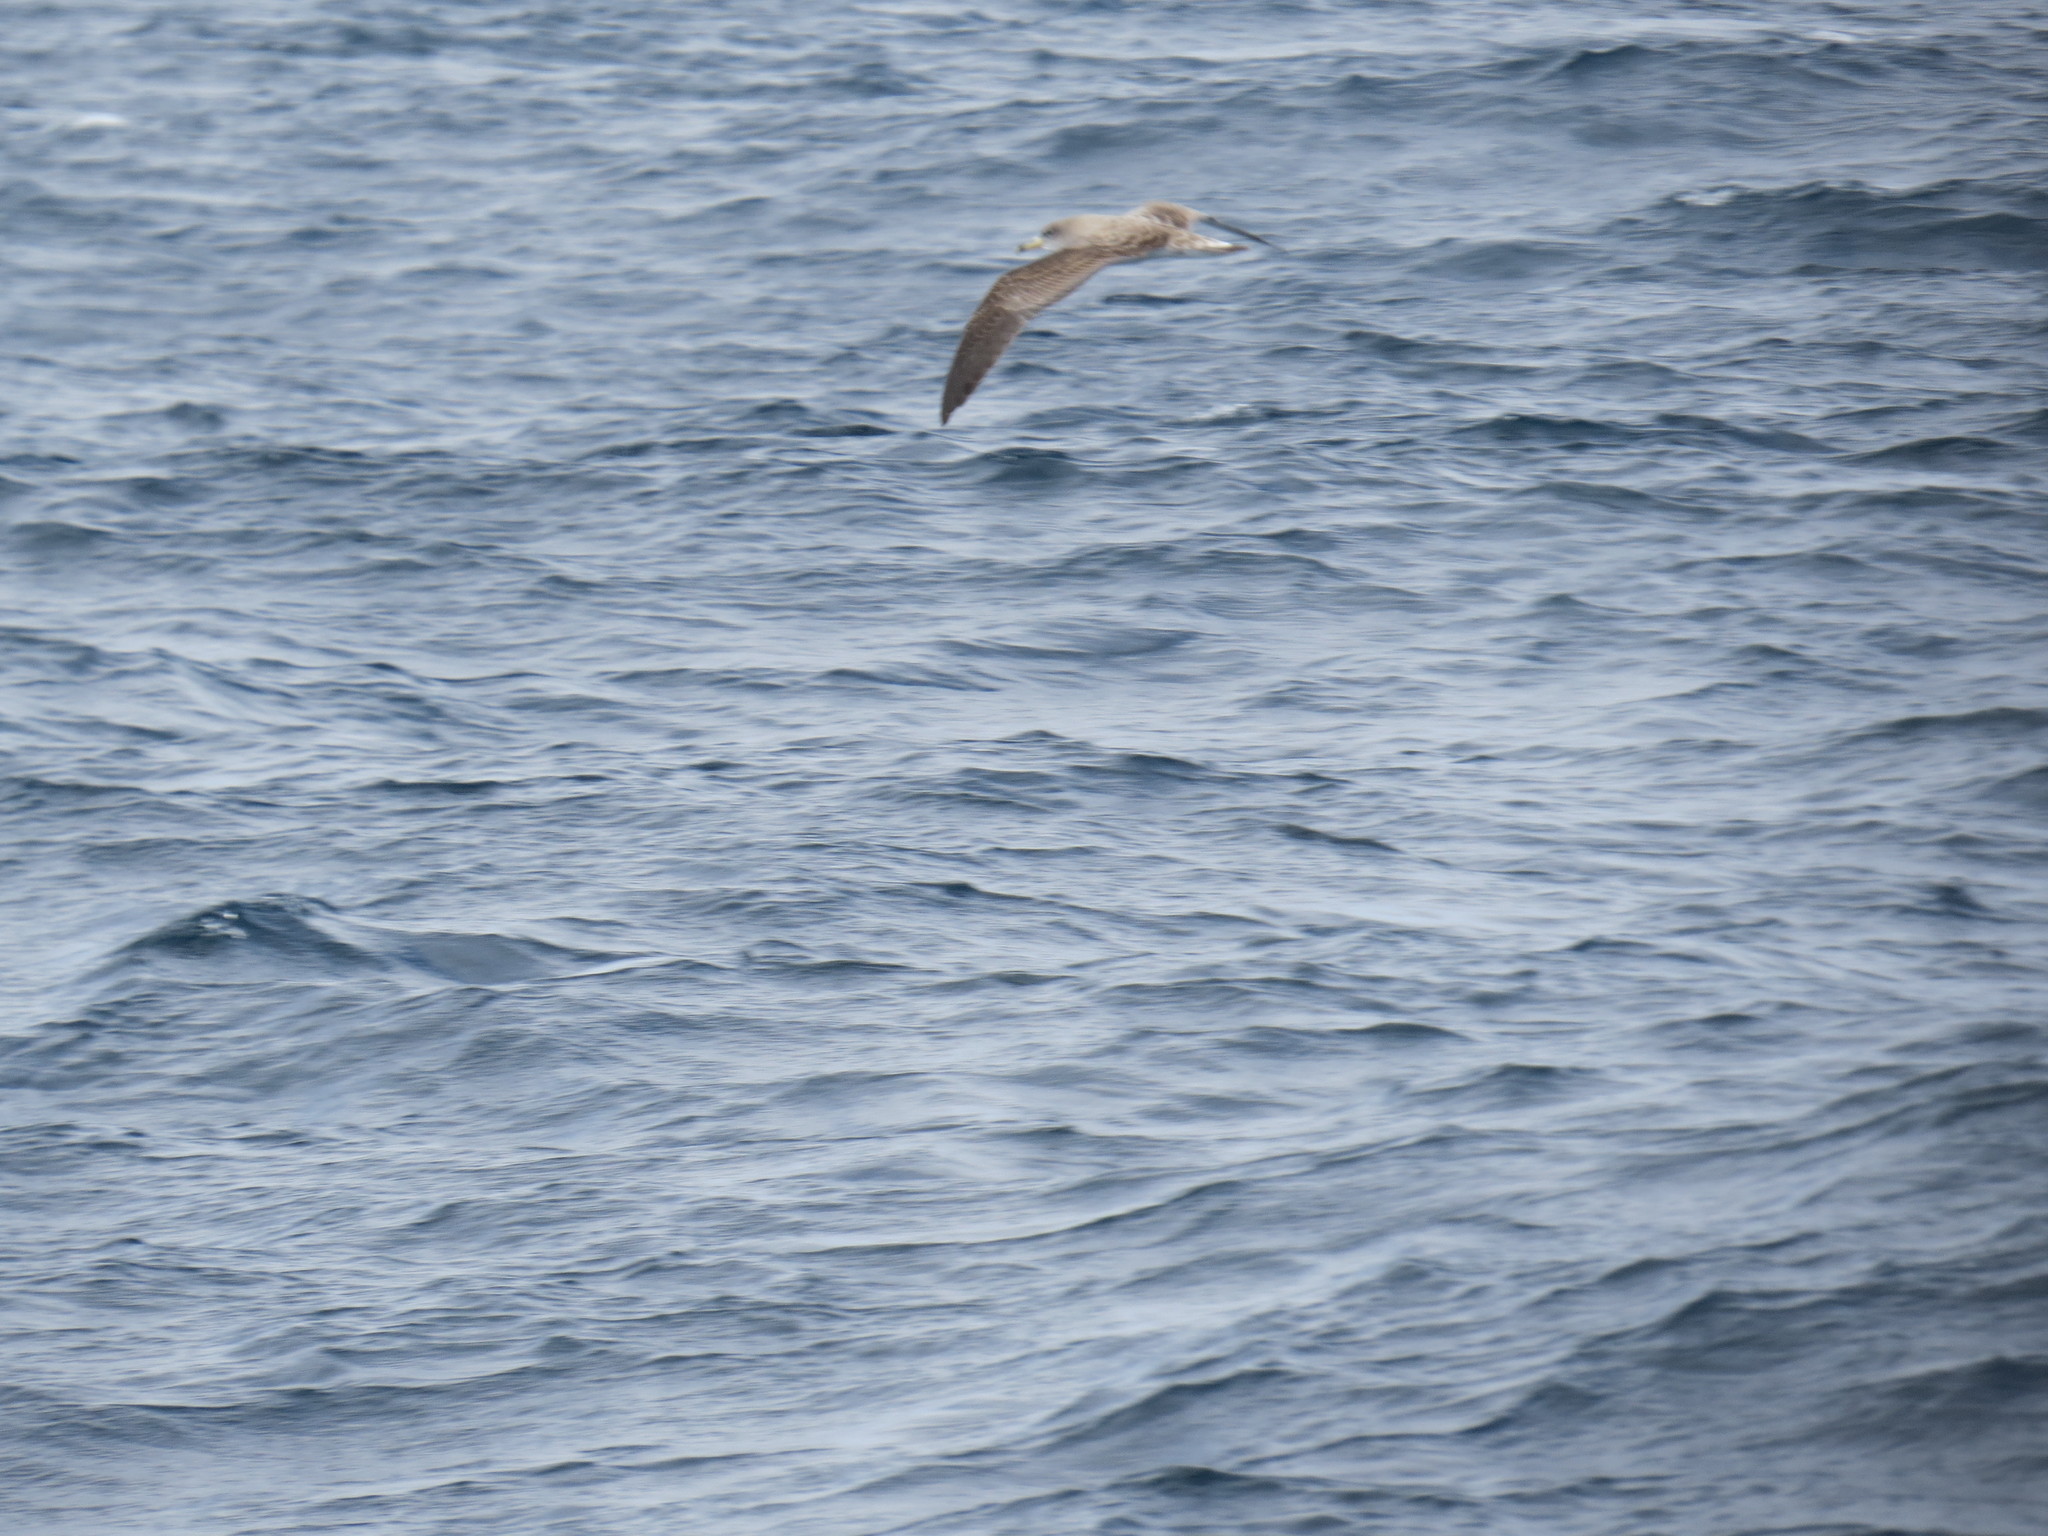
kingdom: Animalia
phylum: Chordata
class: Aves
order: Procellariiformes
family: Procellariidae
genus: Calonectris
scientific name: Calonectris diomedea
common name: Cory's shearwater
